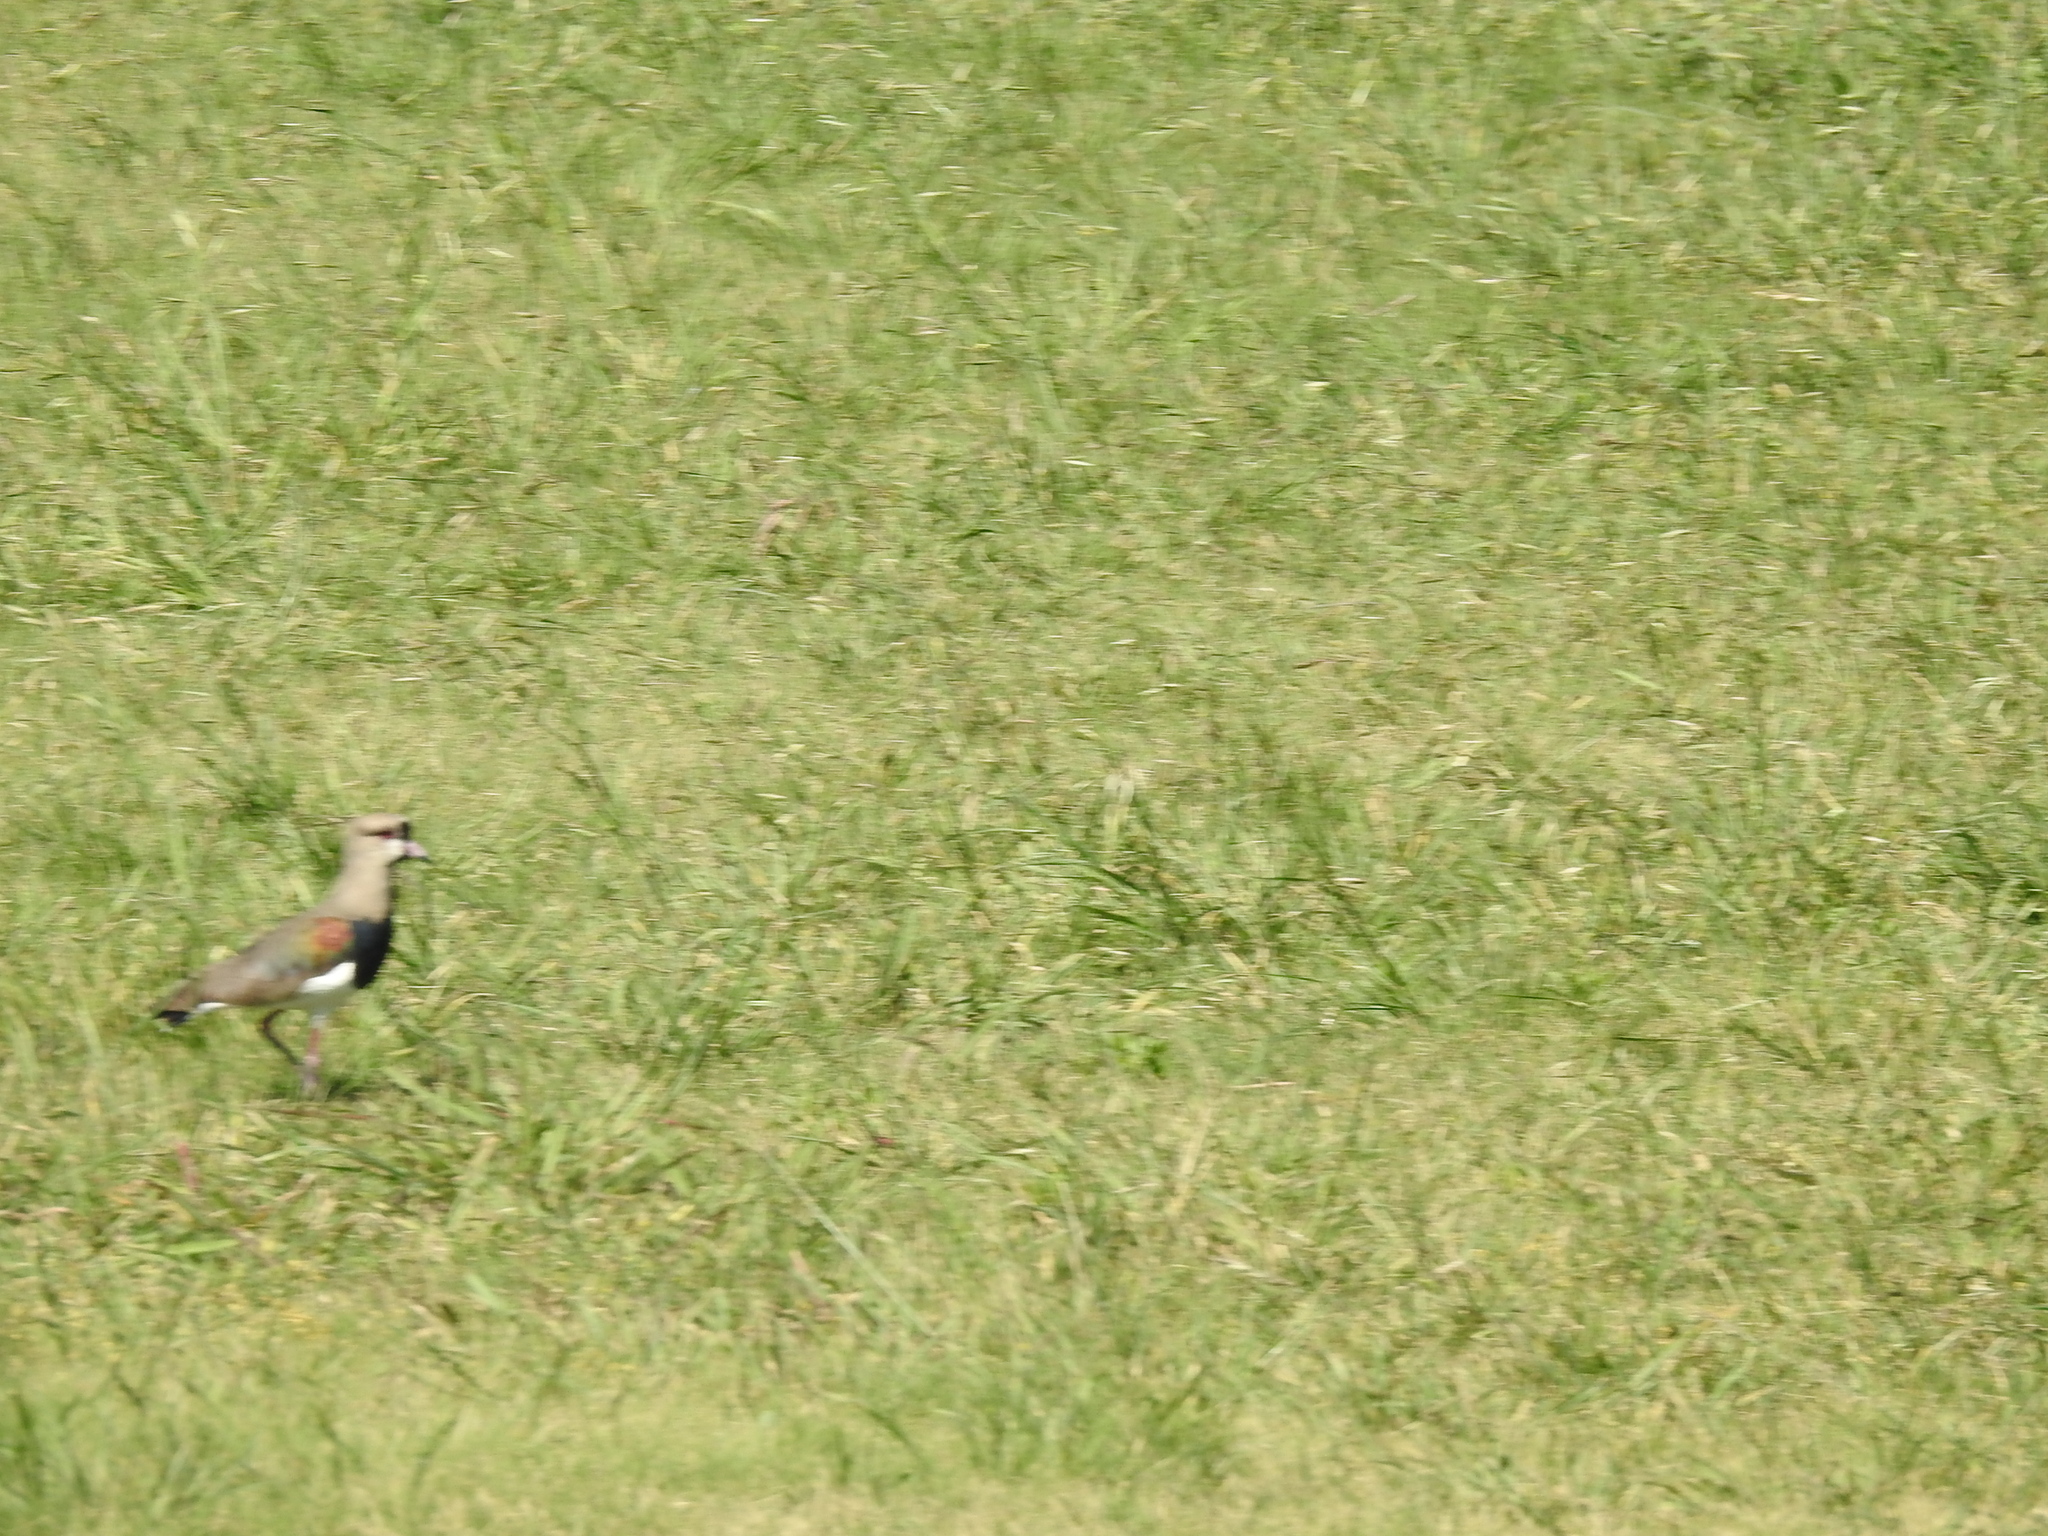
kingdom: Animalia
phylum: Chordata
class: Aves
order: Charadriiformes
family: Charadriidae
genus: Vanellus
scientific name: Vanellus chilensis
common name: Southern lapwing
